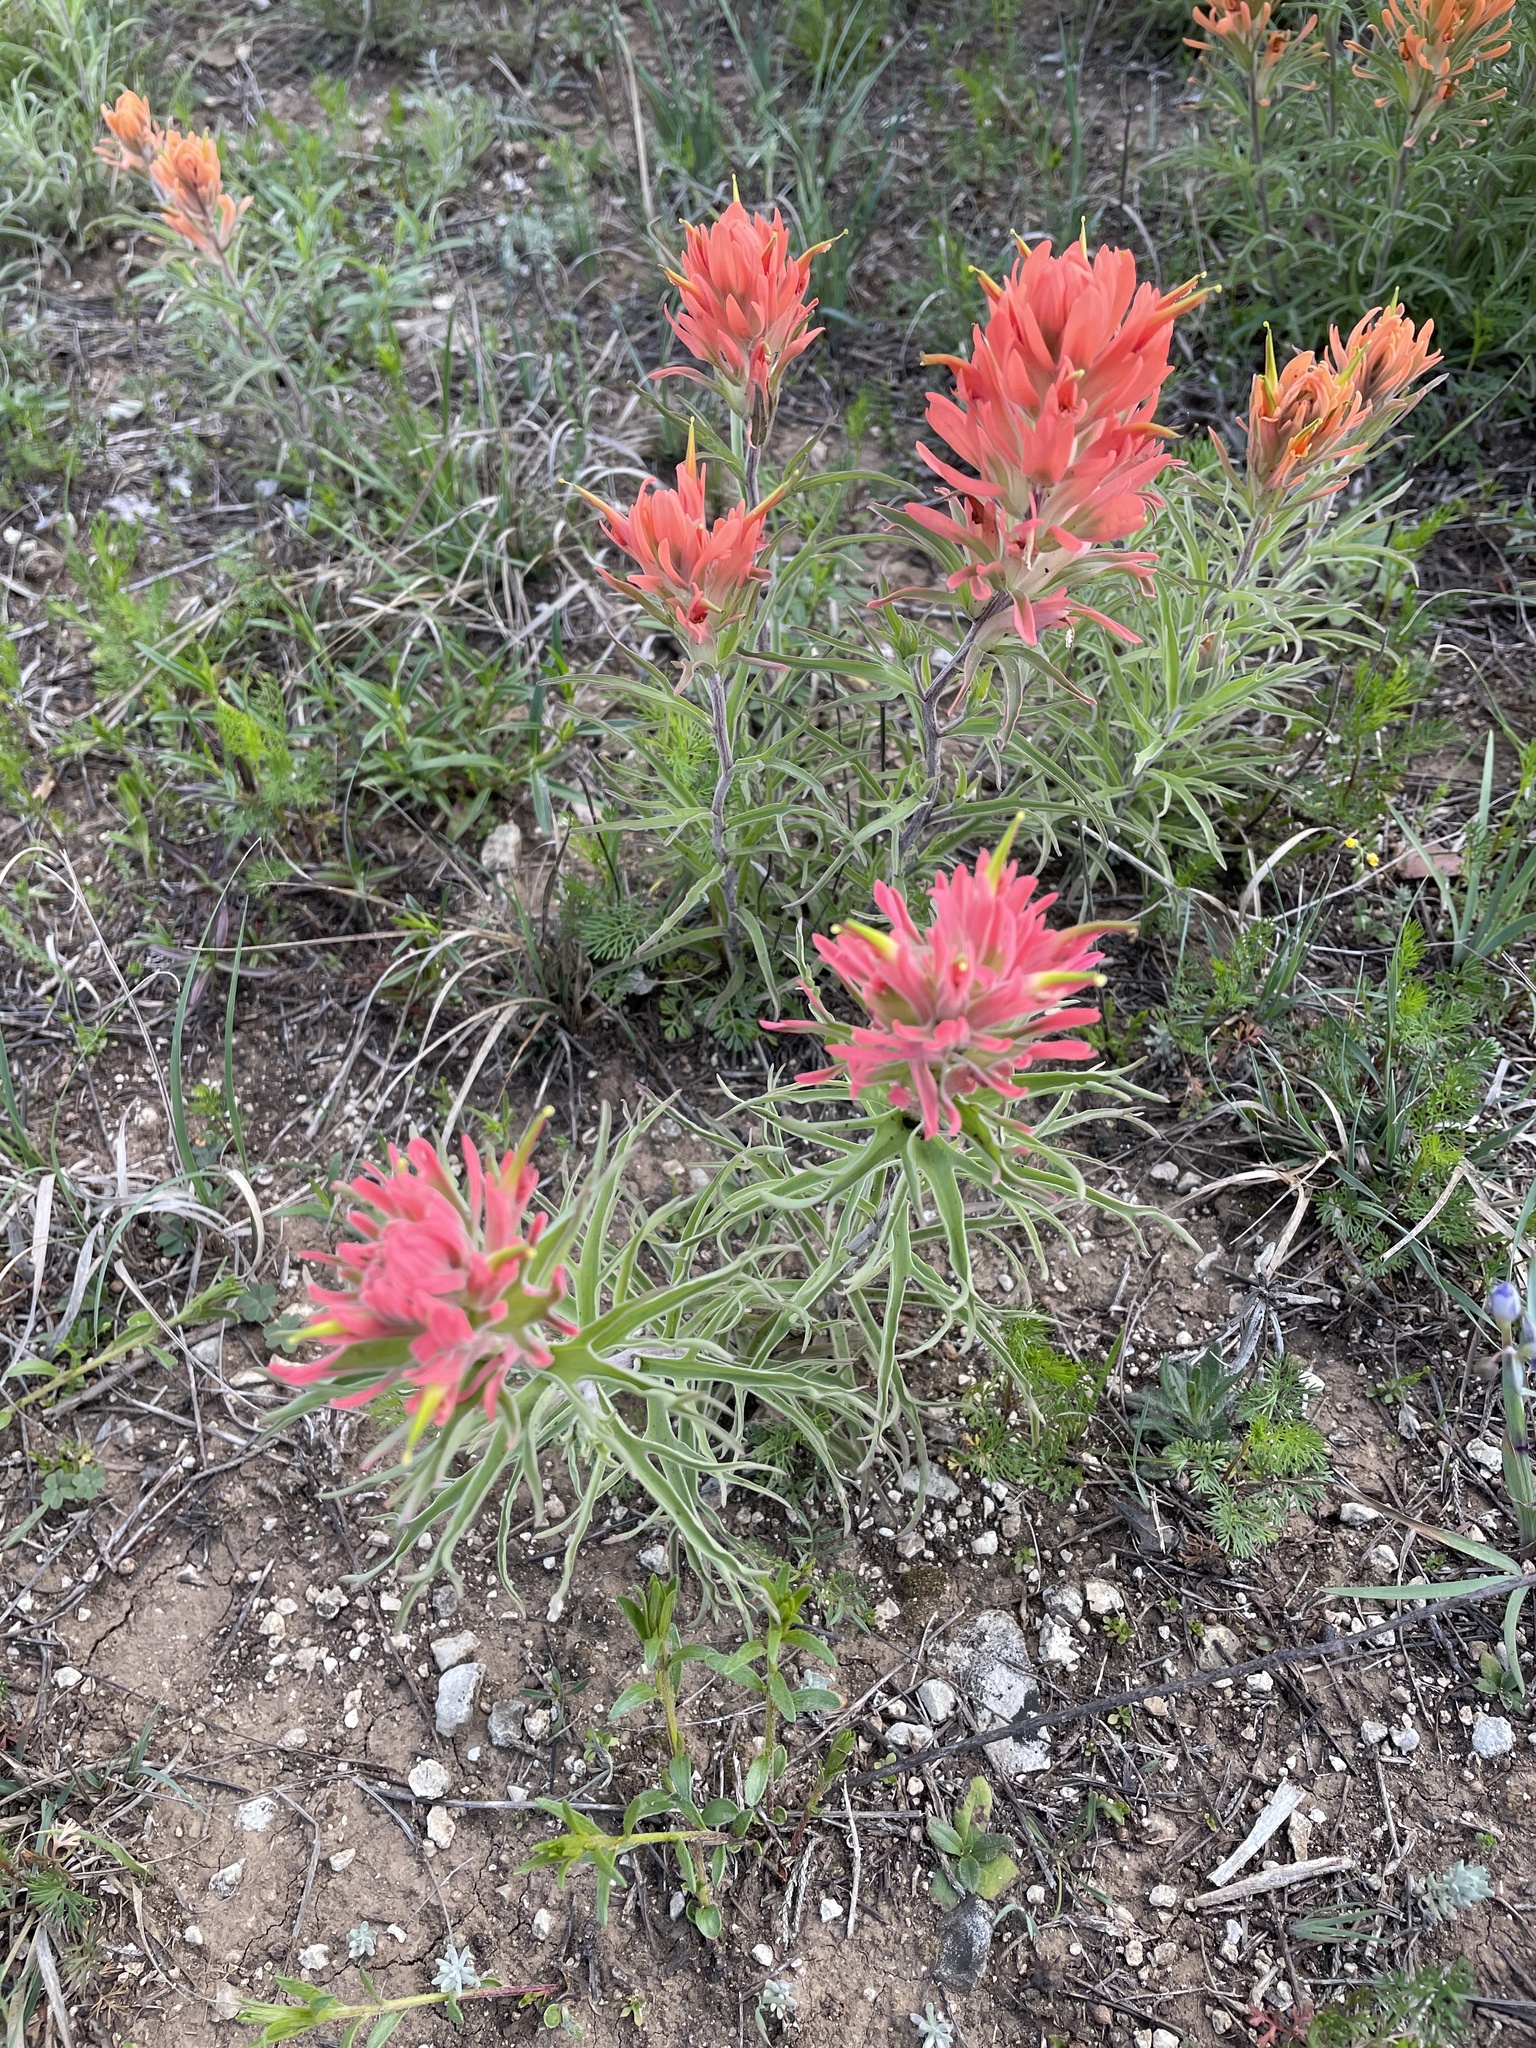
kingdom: Plantae
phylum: Tracheophyta
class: Magnoliopsida
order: Lamiales
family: Orobanchaceae
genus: Castilleja
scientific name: Castilleja lindheimeri
